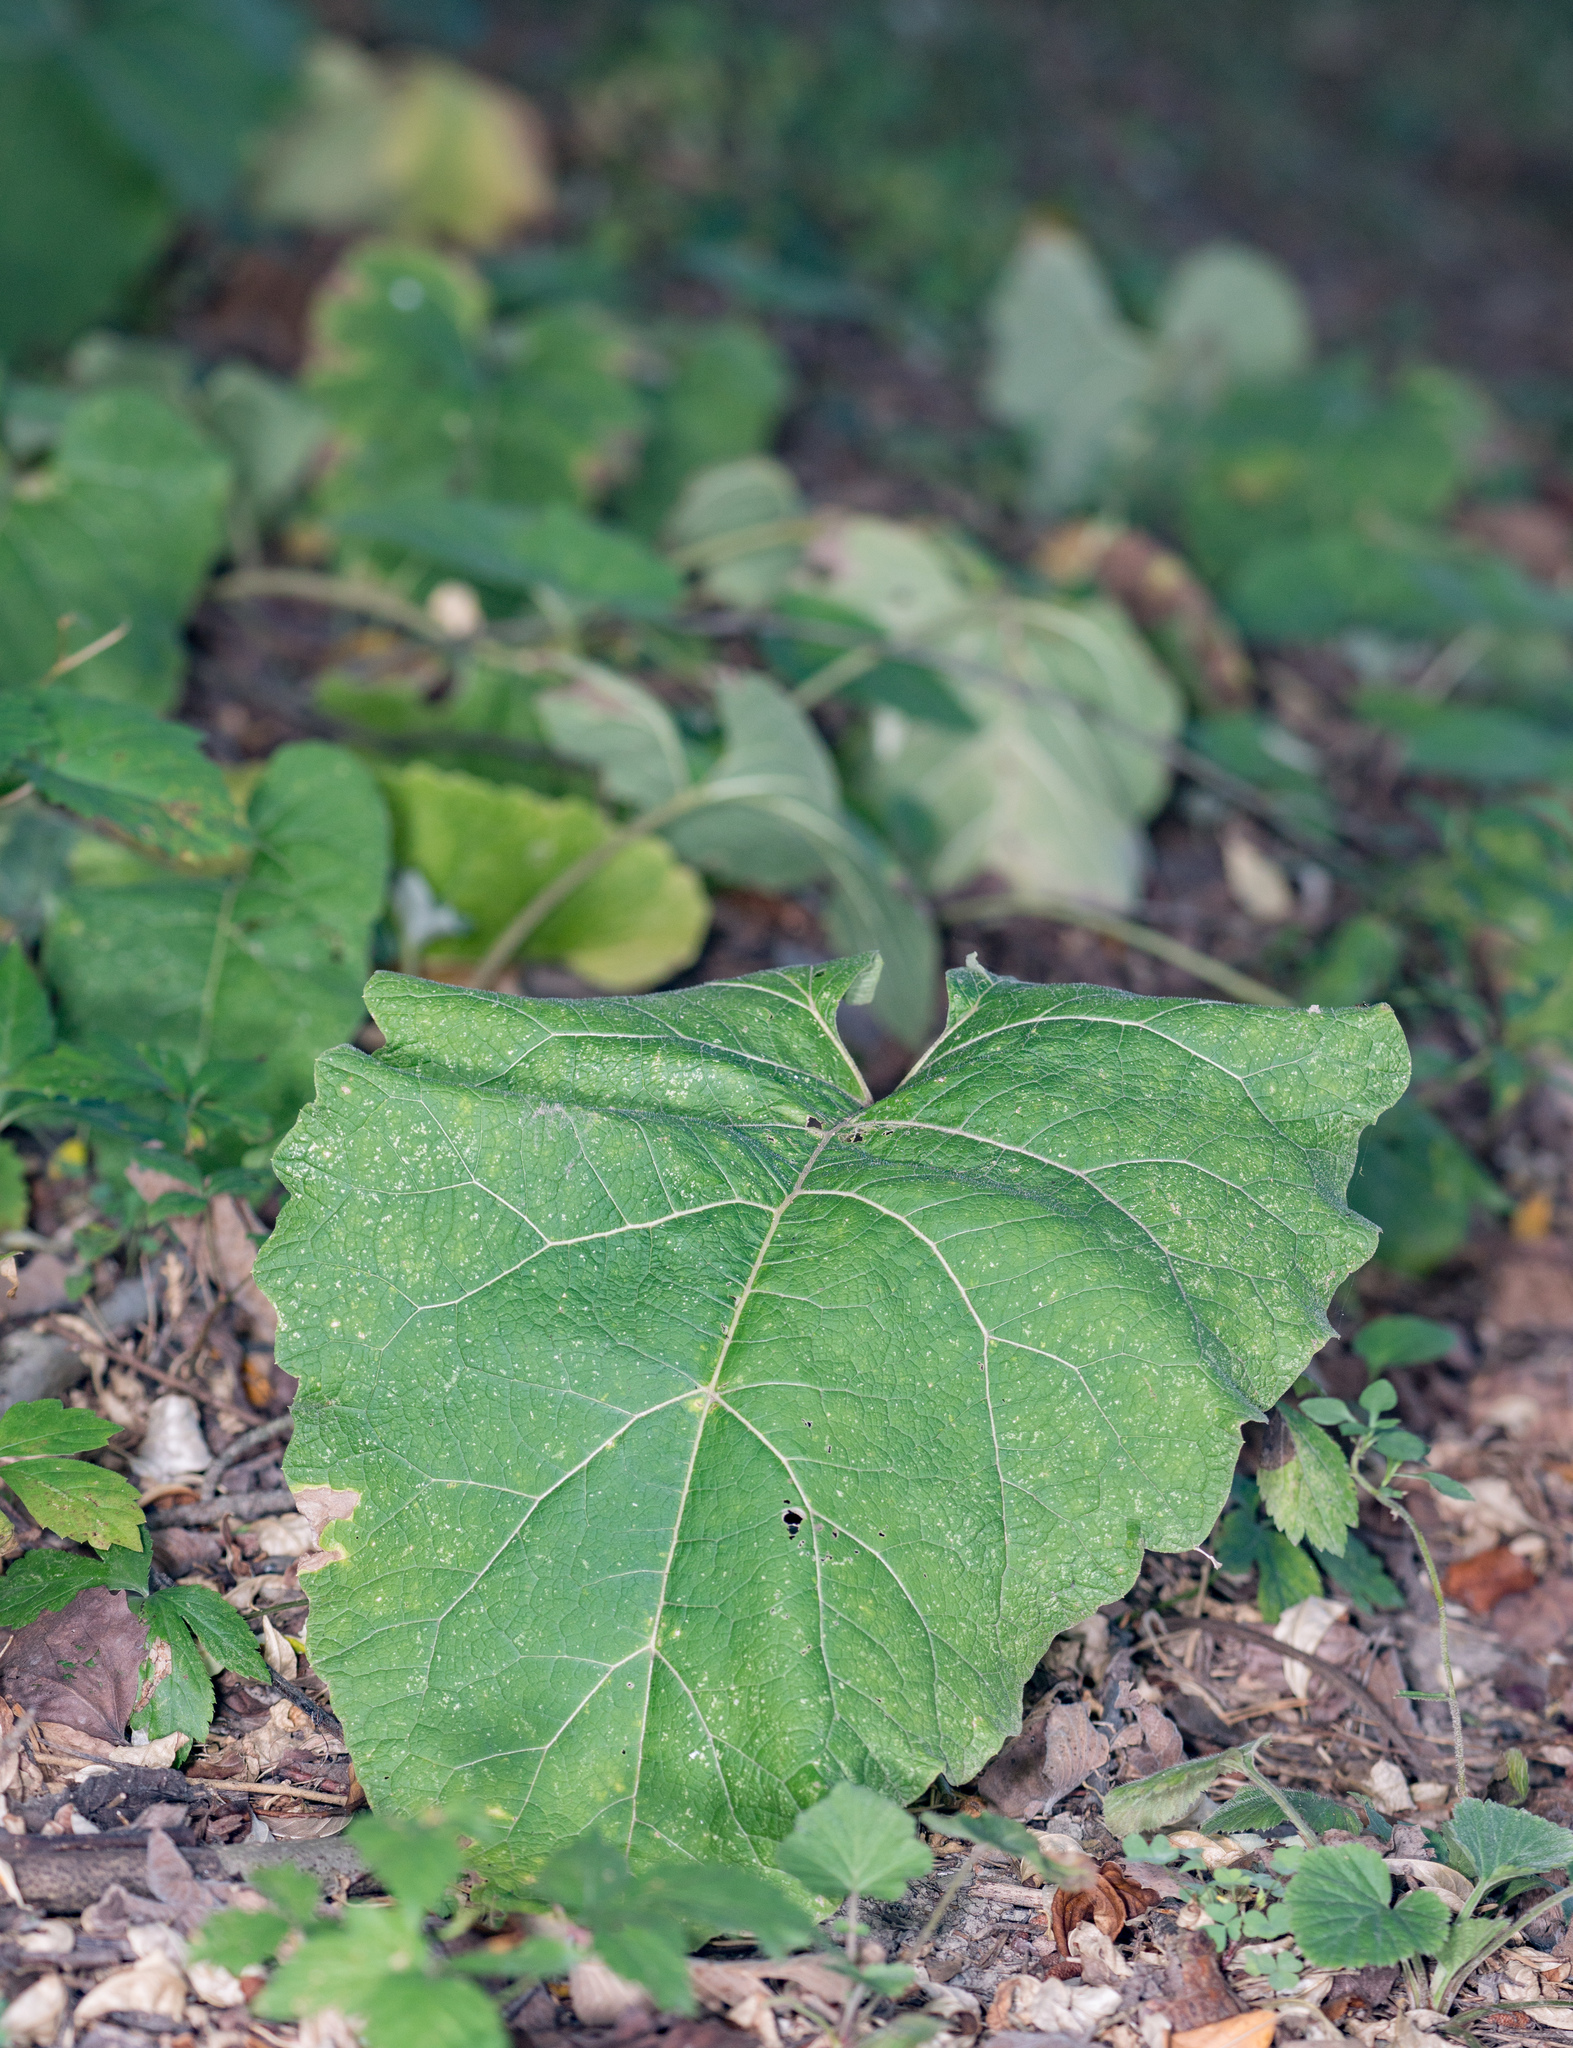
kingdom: Plantae
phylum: Tracheophyta
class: Magnoliopsida
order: Asterales
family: Asteraceae
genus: Arctium
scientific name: Arctium
